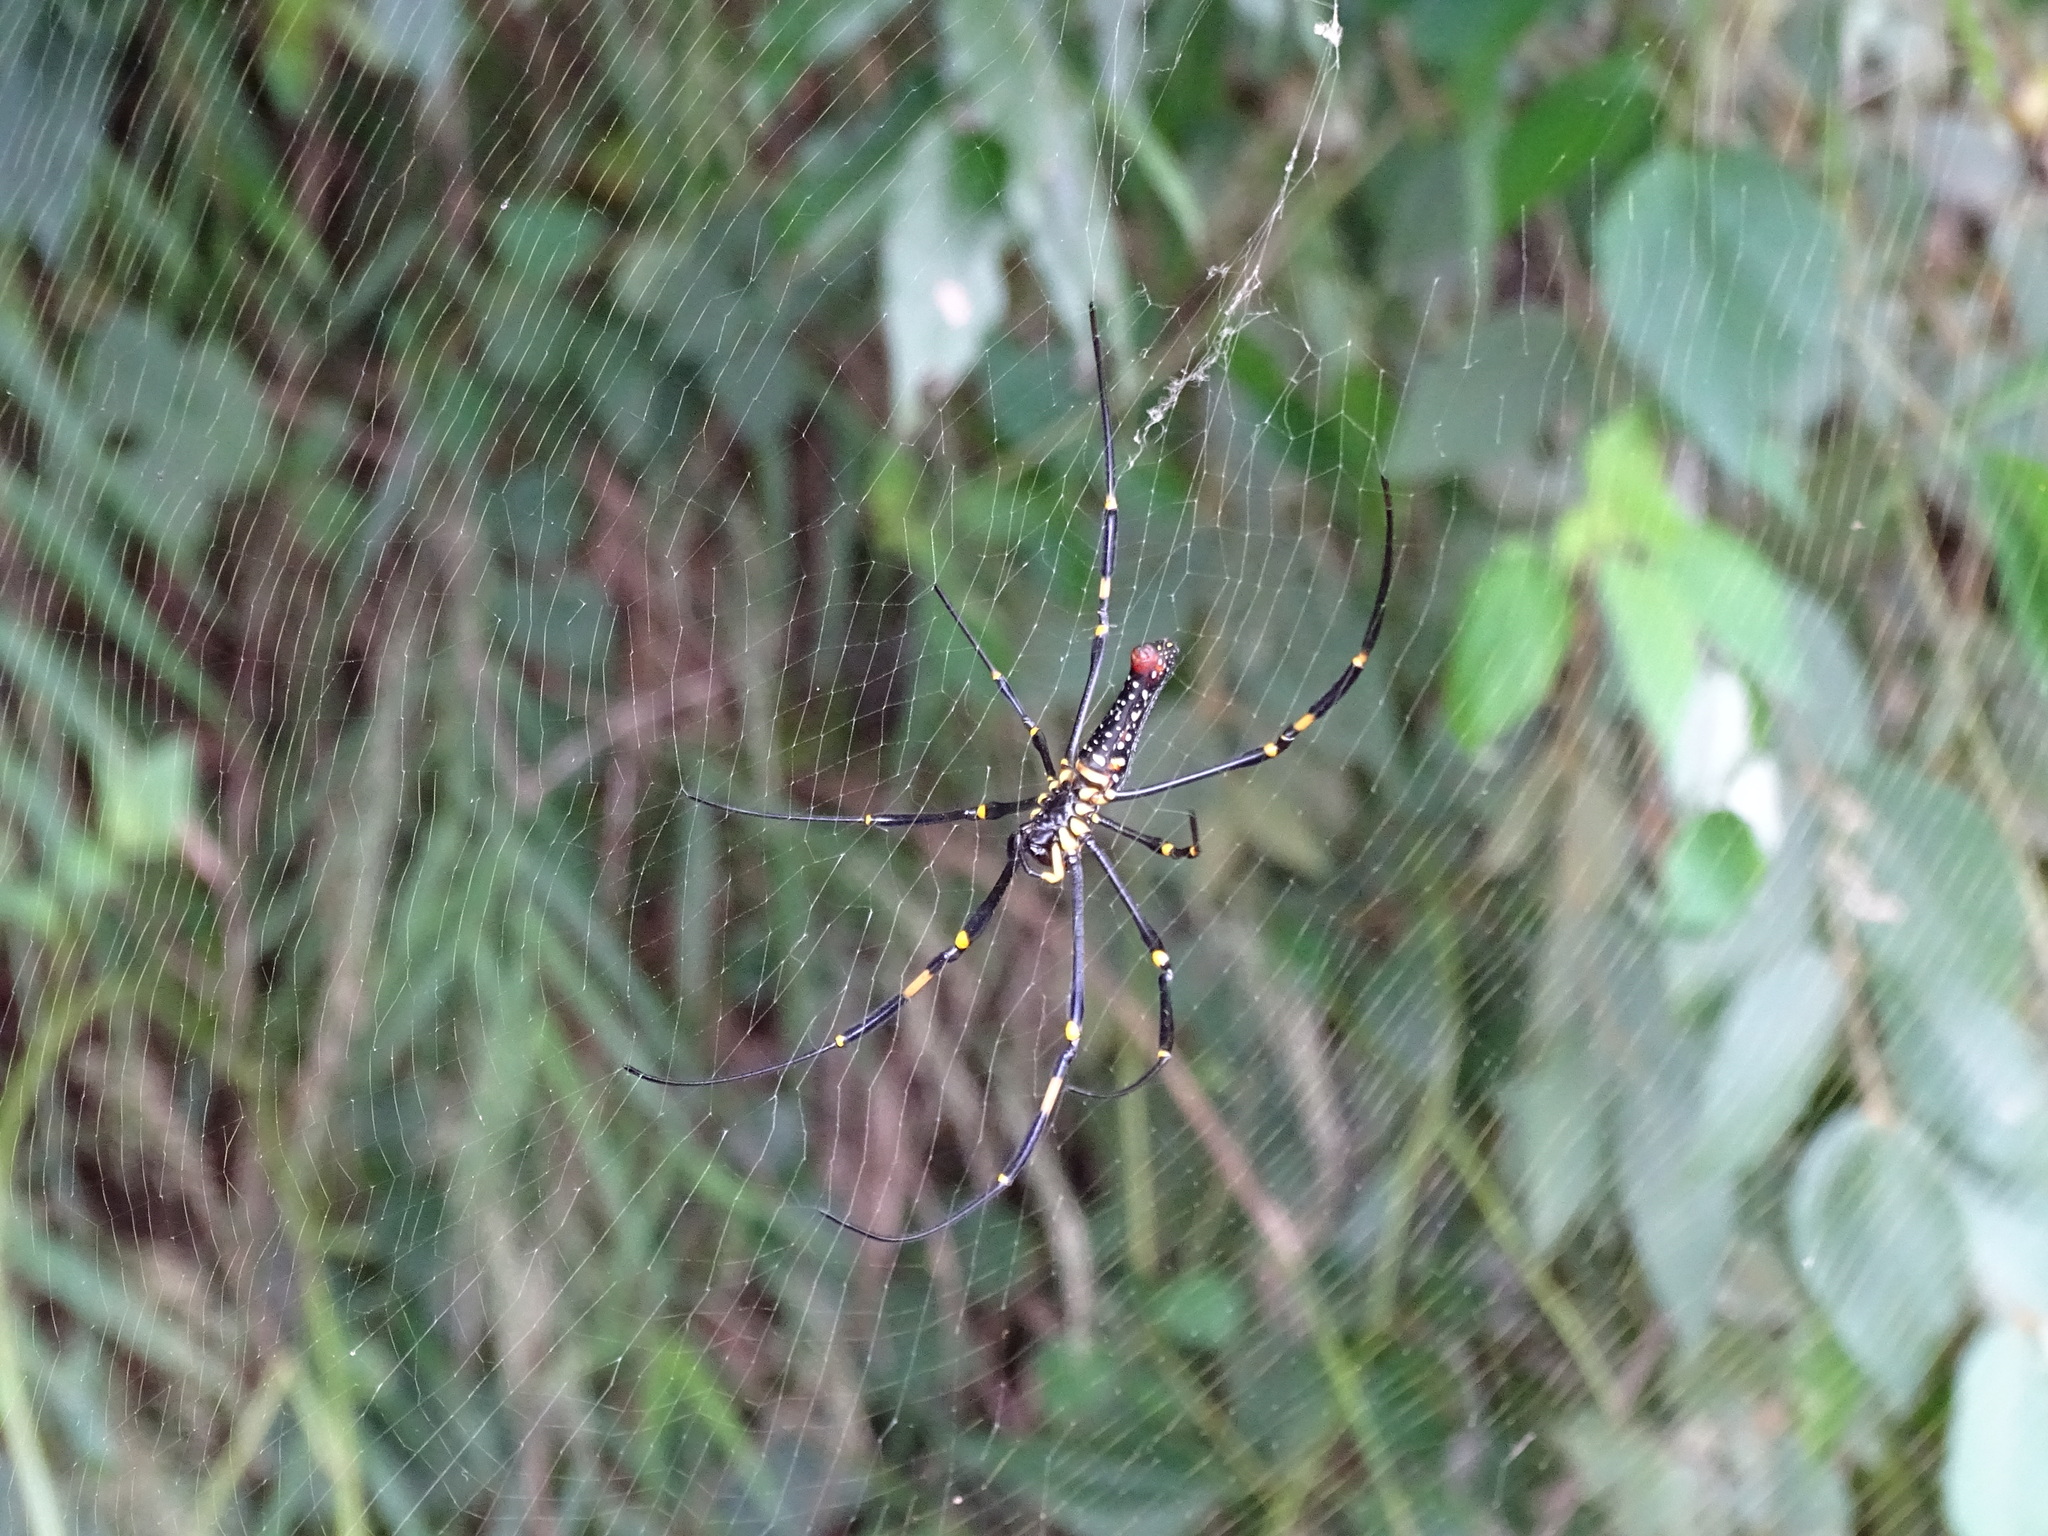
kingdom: Animalia
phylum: Arthropoda
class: Arachnida
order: Araneae
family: Araneidae
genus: Nephila
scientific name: Nephila pilipes
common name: Giant golden orb weaver
